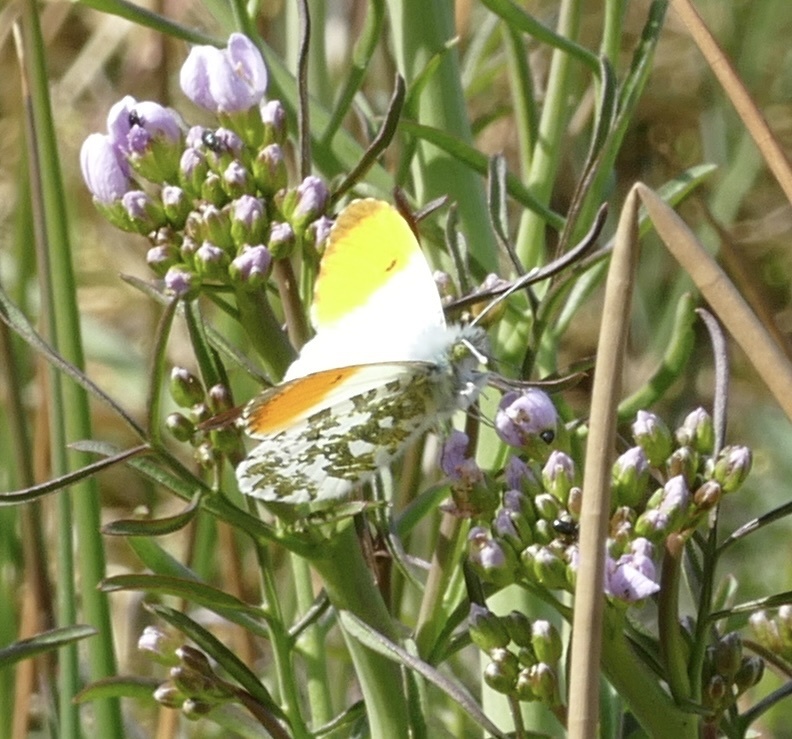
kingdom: Animalia
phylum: Arthropoda
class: Insecta
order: Lepidoptera
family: Pieridae
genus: Anthocharis
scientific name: Anthocharis cardamines
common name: Orange-tip
